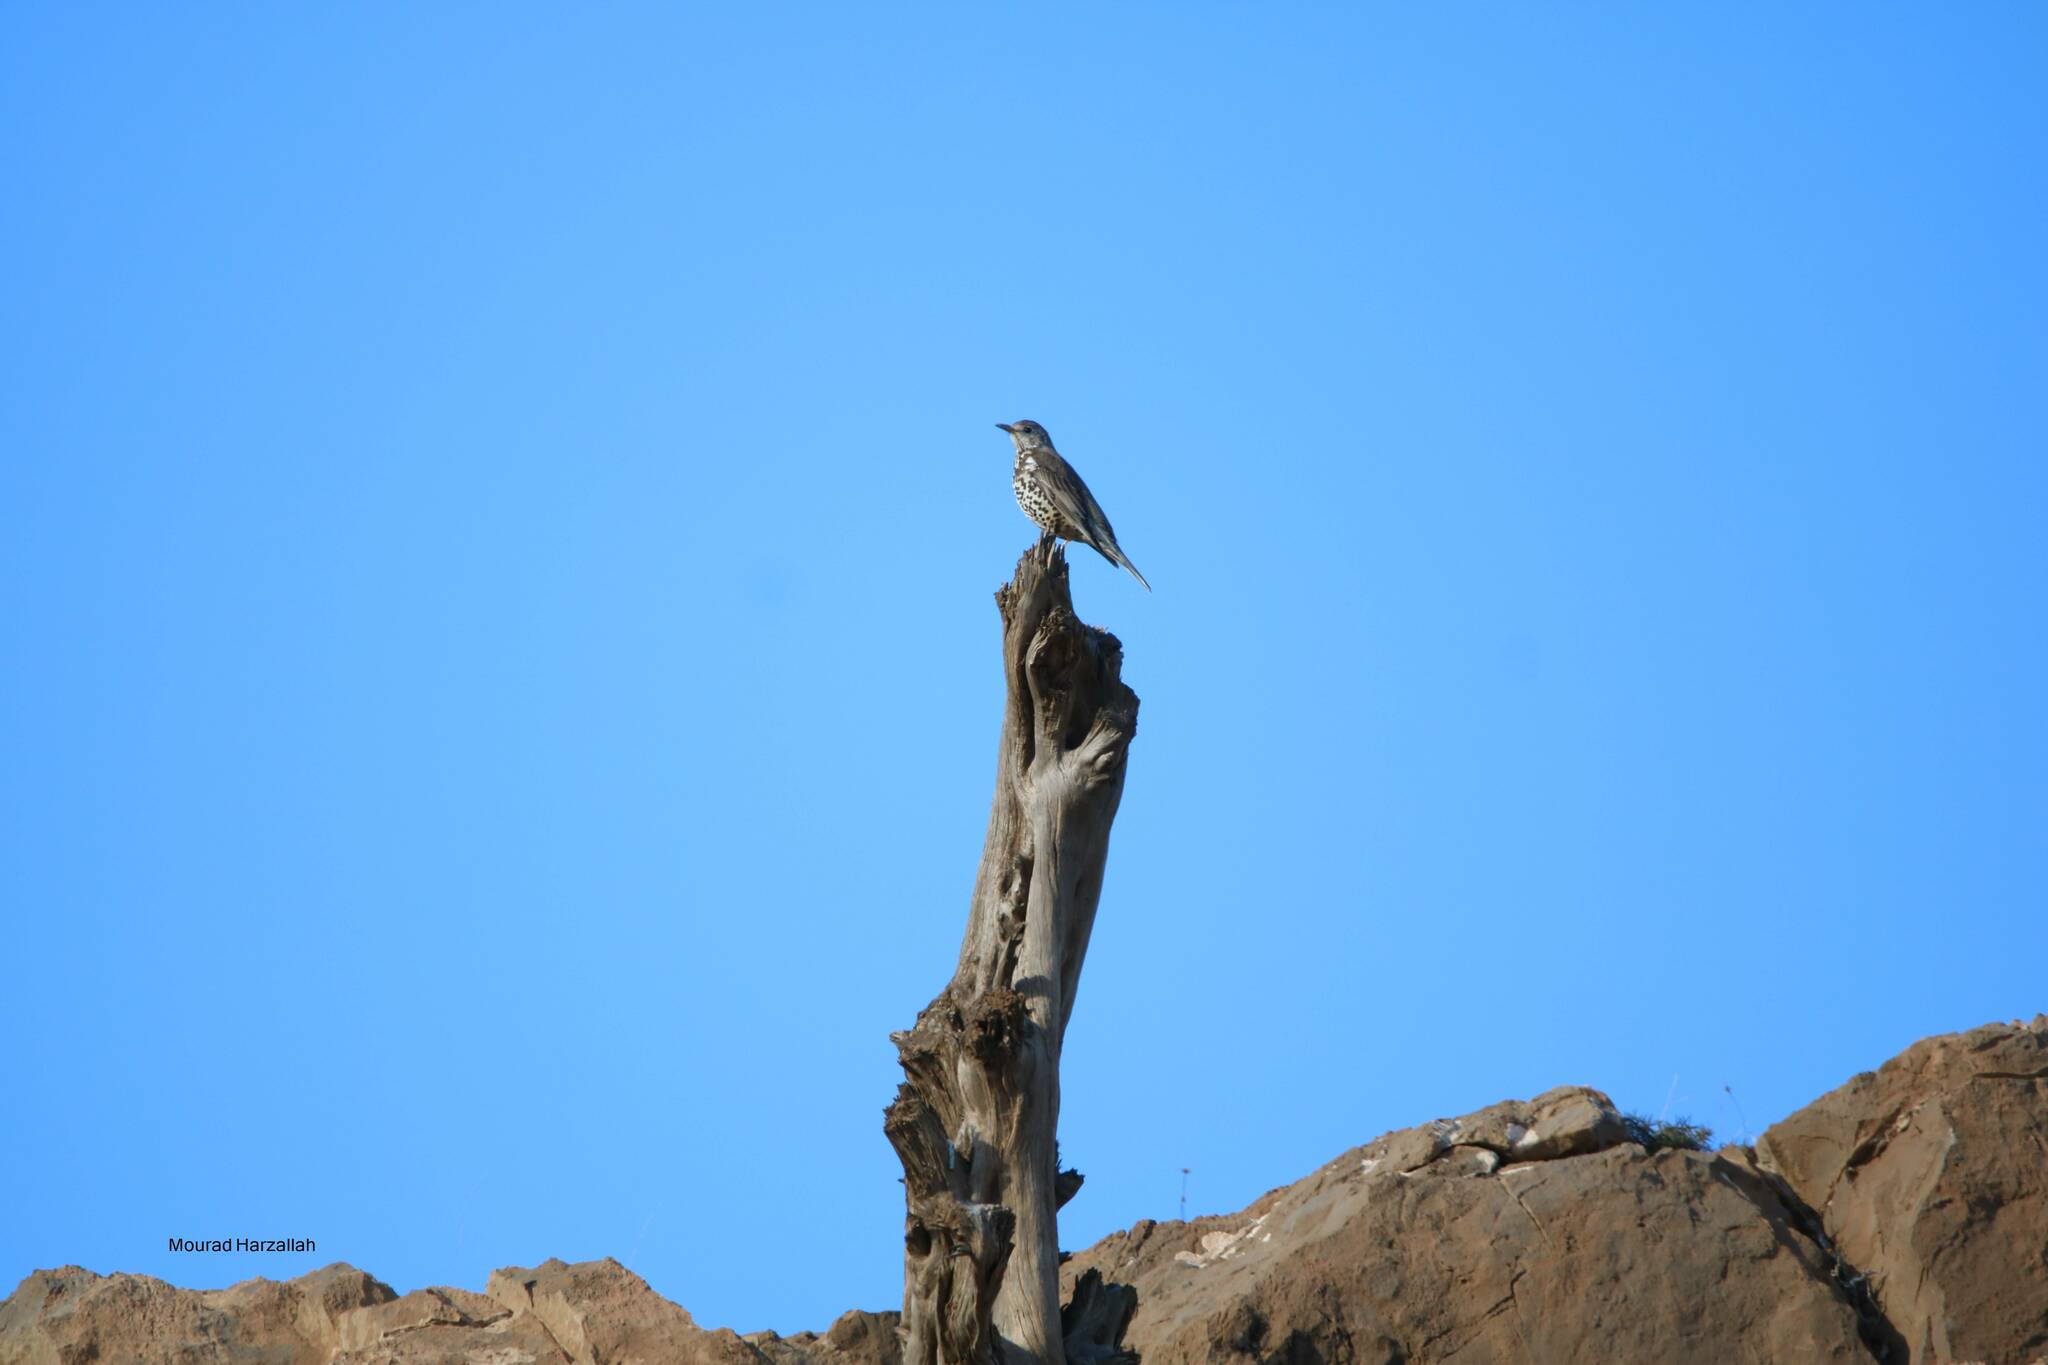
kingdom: Animalia
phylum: Chordata
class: Aves
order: Passeriformes
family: Turdidae
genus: Turdus
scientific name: Turdus viscivorus
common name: Mistle thrush
